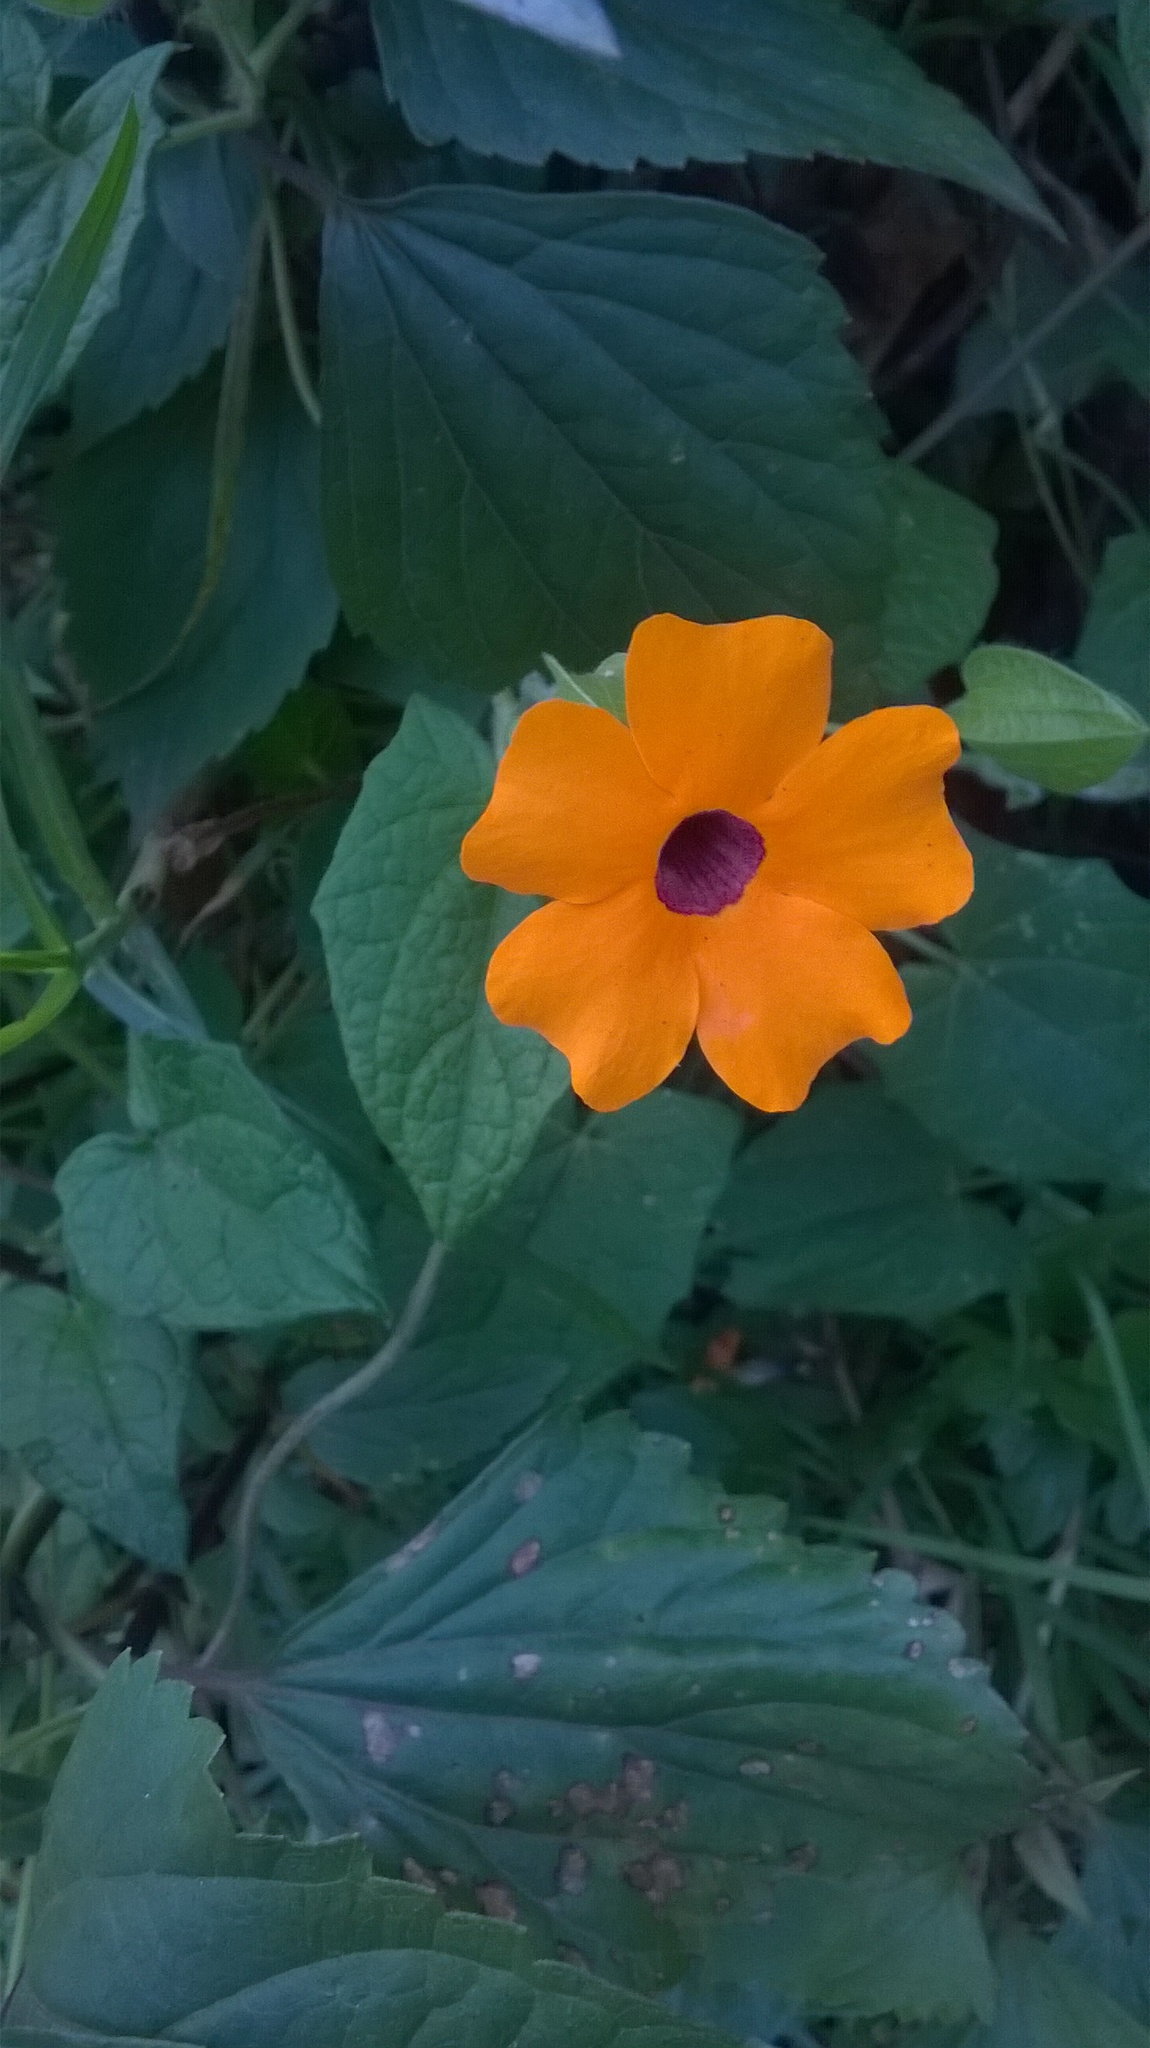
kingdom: Plantae
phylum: Tracheophyta
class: Magnoliopsida
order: Lamiales
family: Acanthaceae
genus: Thunbergia
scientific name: Thunbergia alata
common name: Blackeyed susan vine
